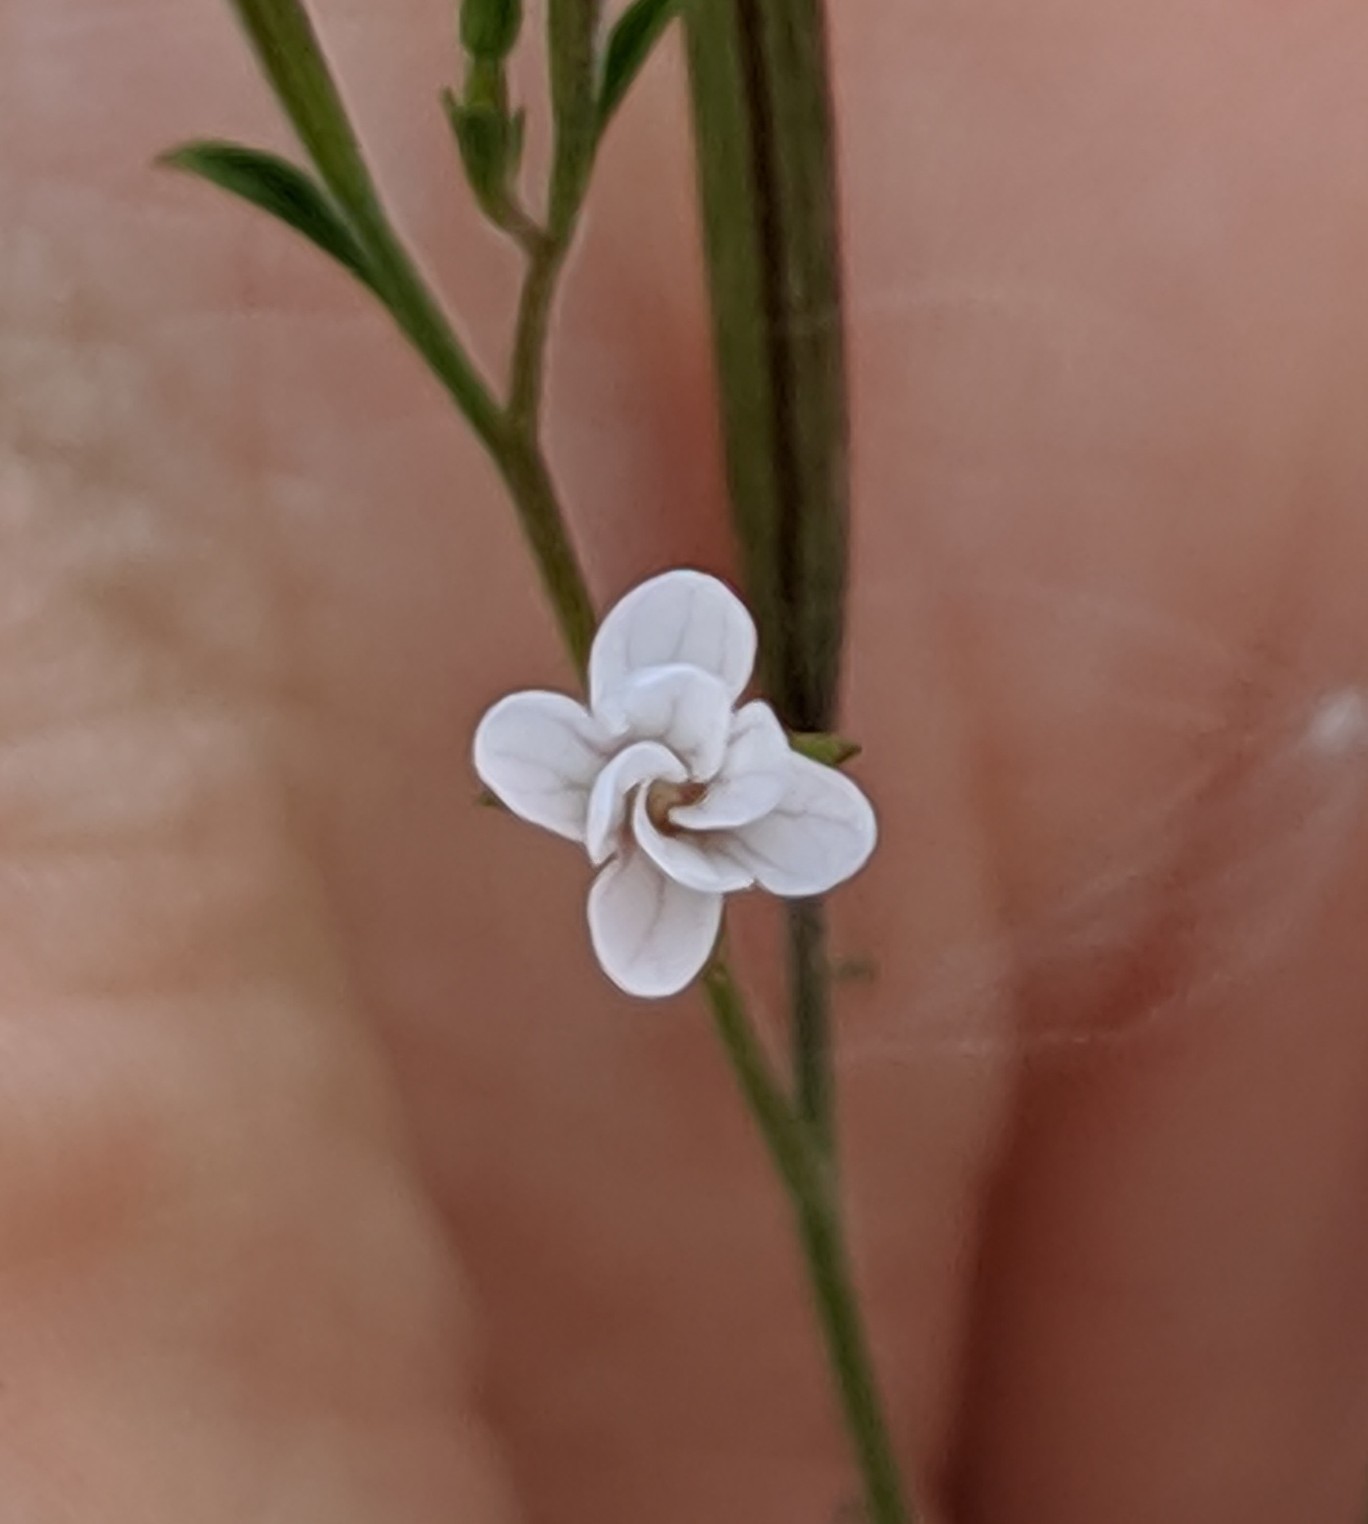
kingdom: Plantae
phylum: Tracheophyta
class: Magnoliopsida
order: Myrtales
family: Onagraceae
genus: Epilobium
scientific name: Epilobium brachycarpum
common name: Annual willowherb
